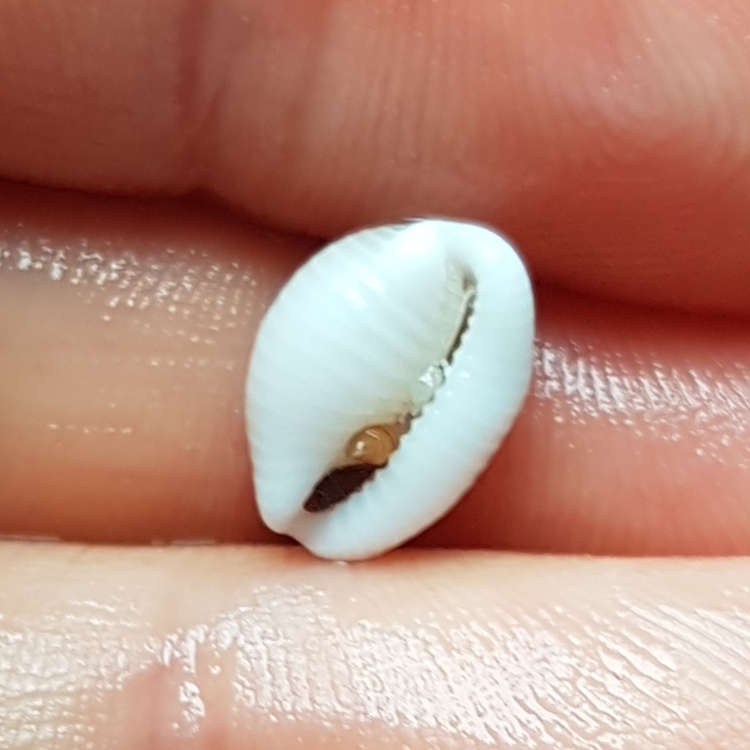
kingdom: Animalia
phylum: Mollusca
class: Gastropoda
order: Littorinimorpha
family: Triviidae
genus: Trivia
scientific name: Trivia monacha
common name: Spotted cowrie
